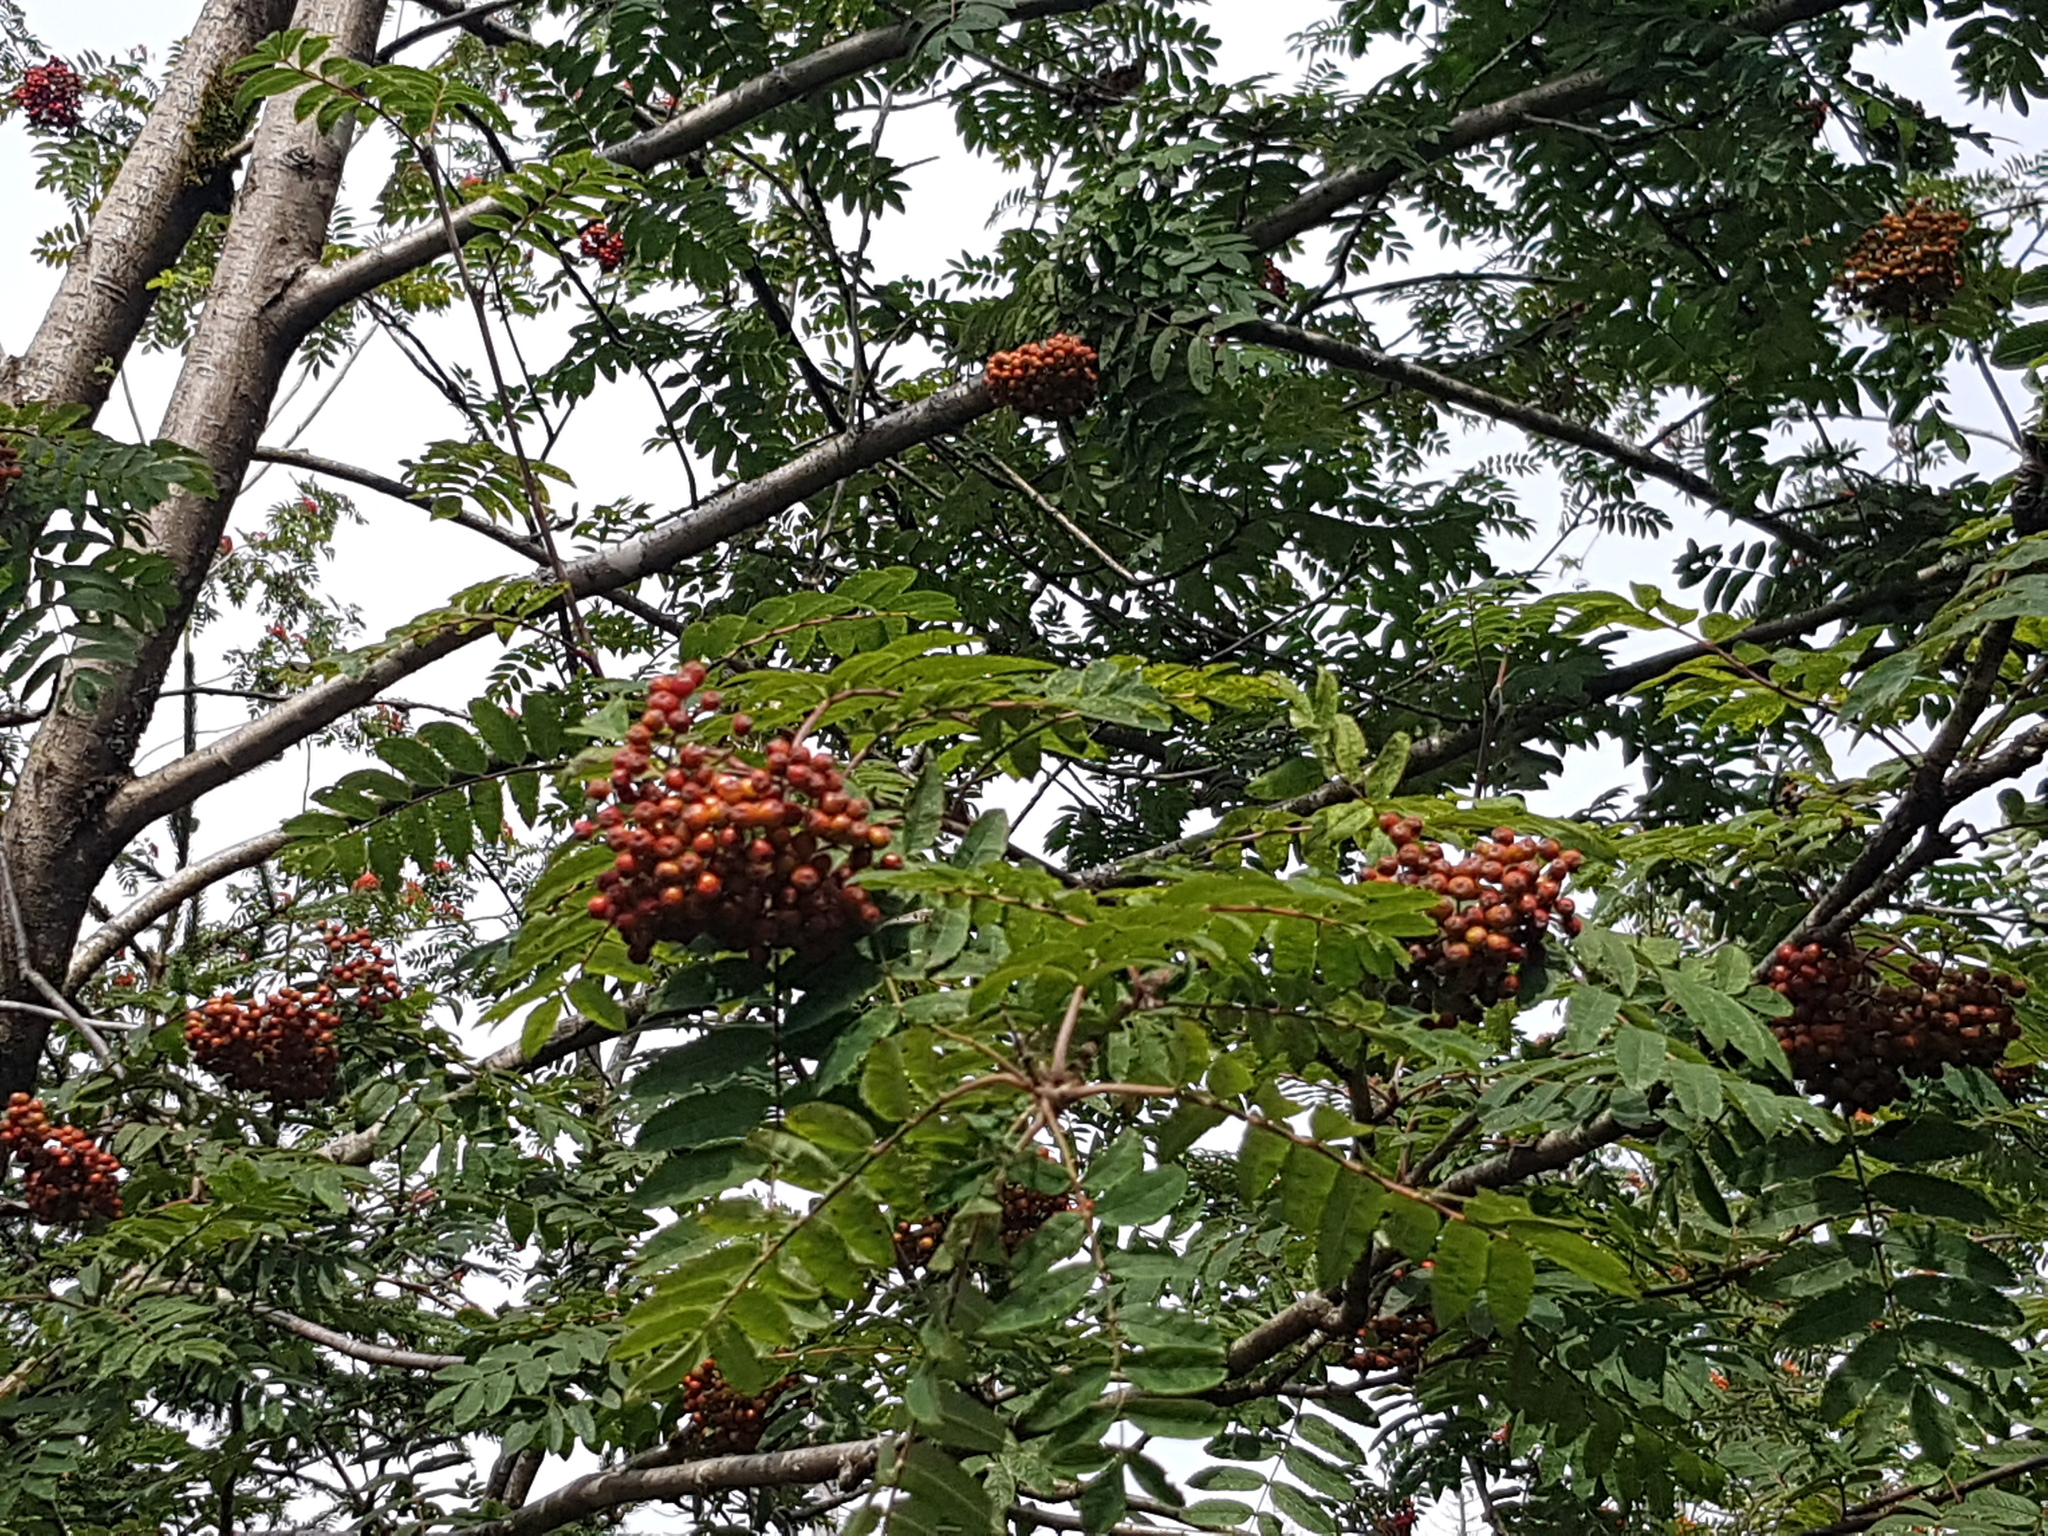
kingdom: Plantae
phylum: Tracheophyta
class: Magnoliopsida
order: Rosales
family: Rosaceae
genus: Sorbus
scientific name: Sorbus aucuparia
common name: Rowan
